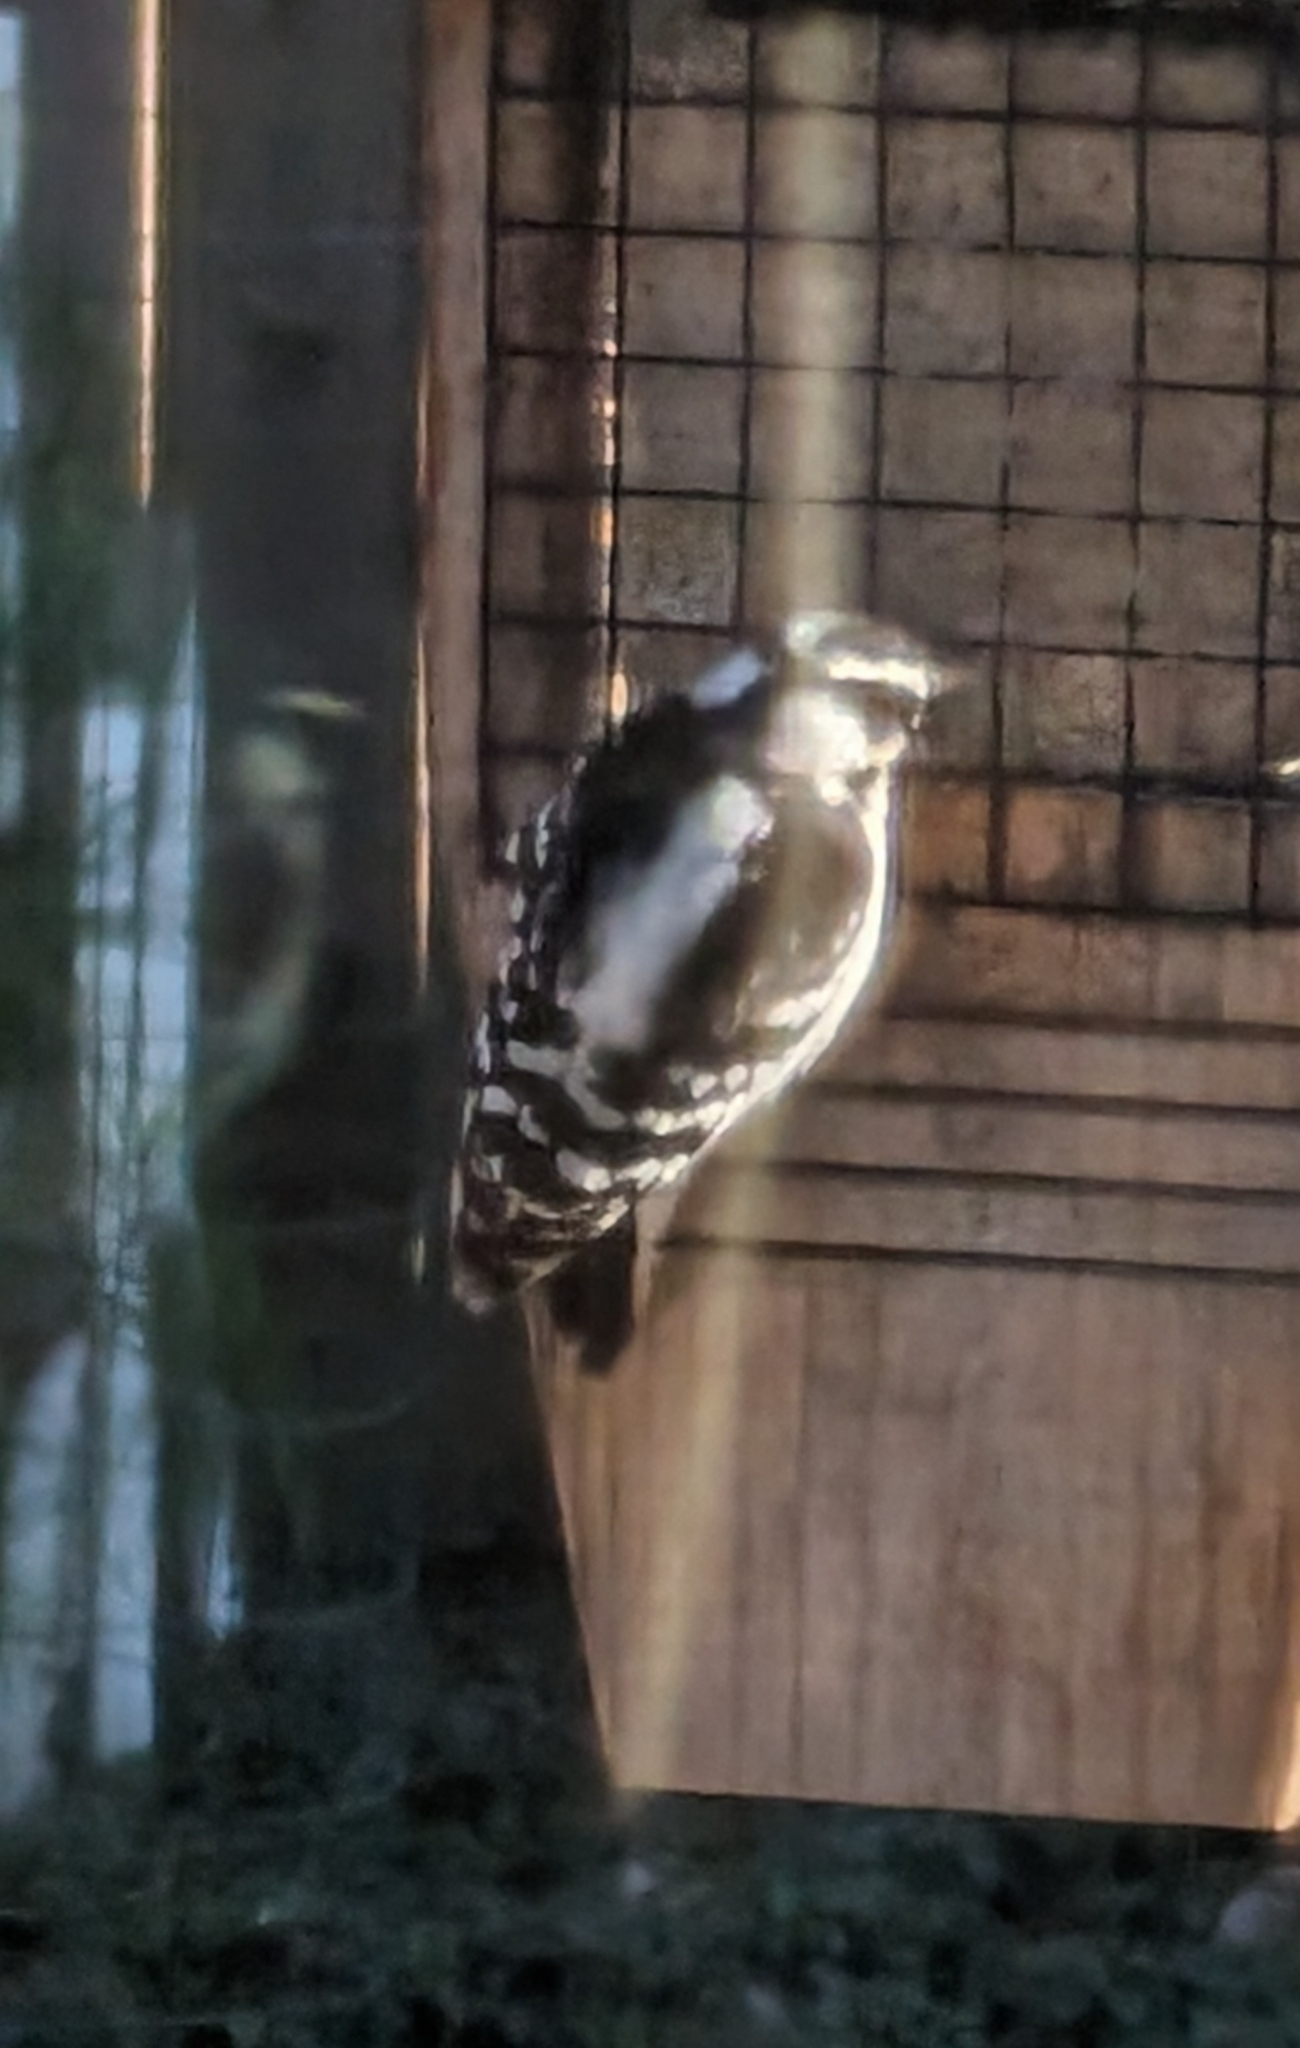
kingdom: Animalia
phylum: Chordata
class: Aves
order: Piciformes
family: Picidae
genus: Dryobates
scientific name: Dryobates pubescens
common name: Downy woodpecker
